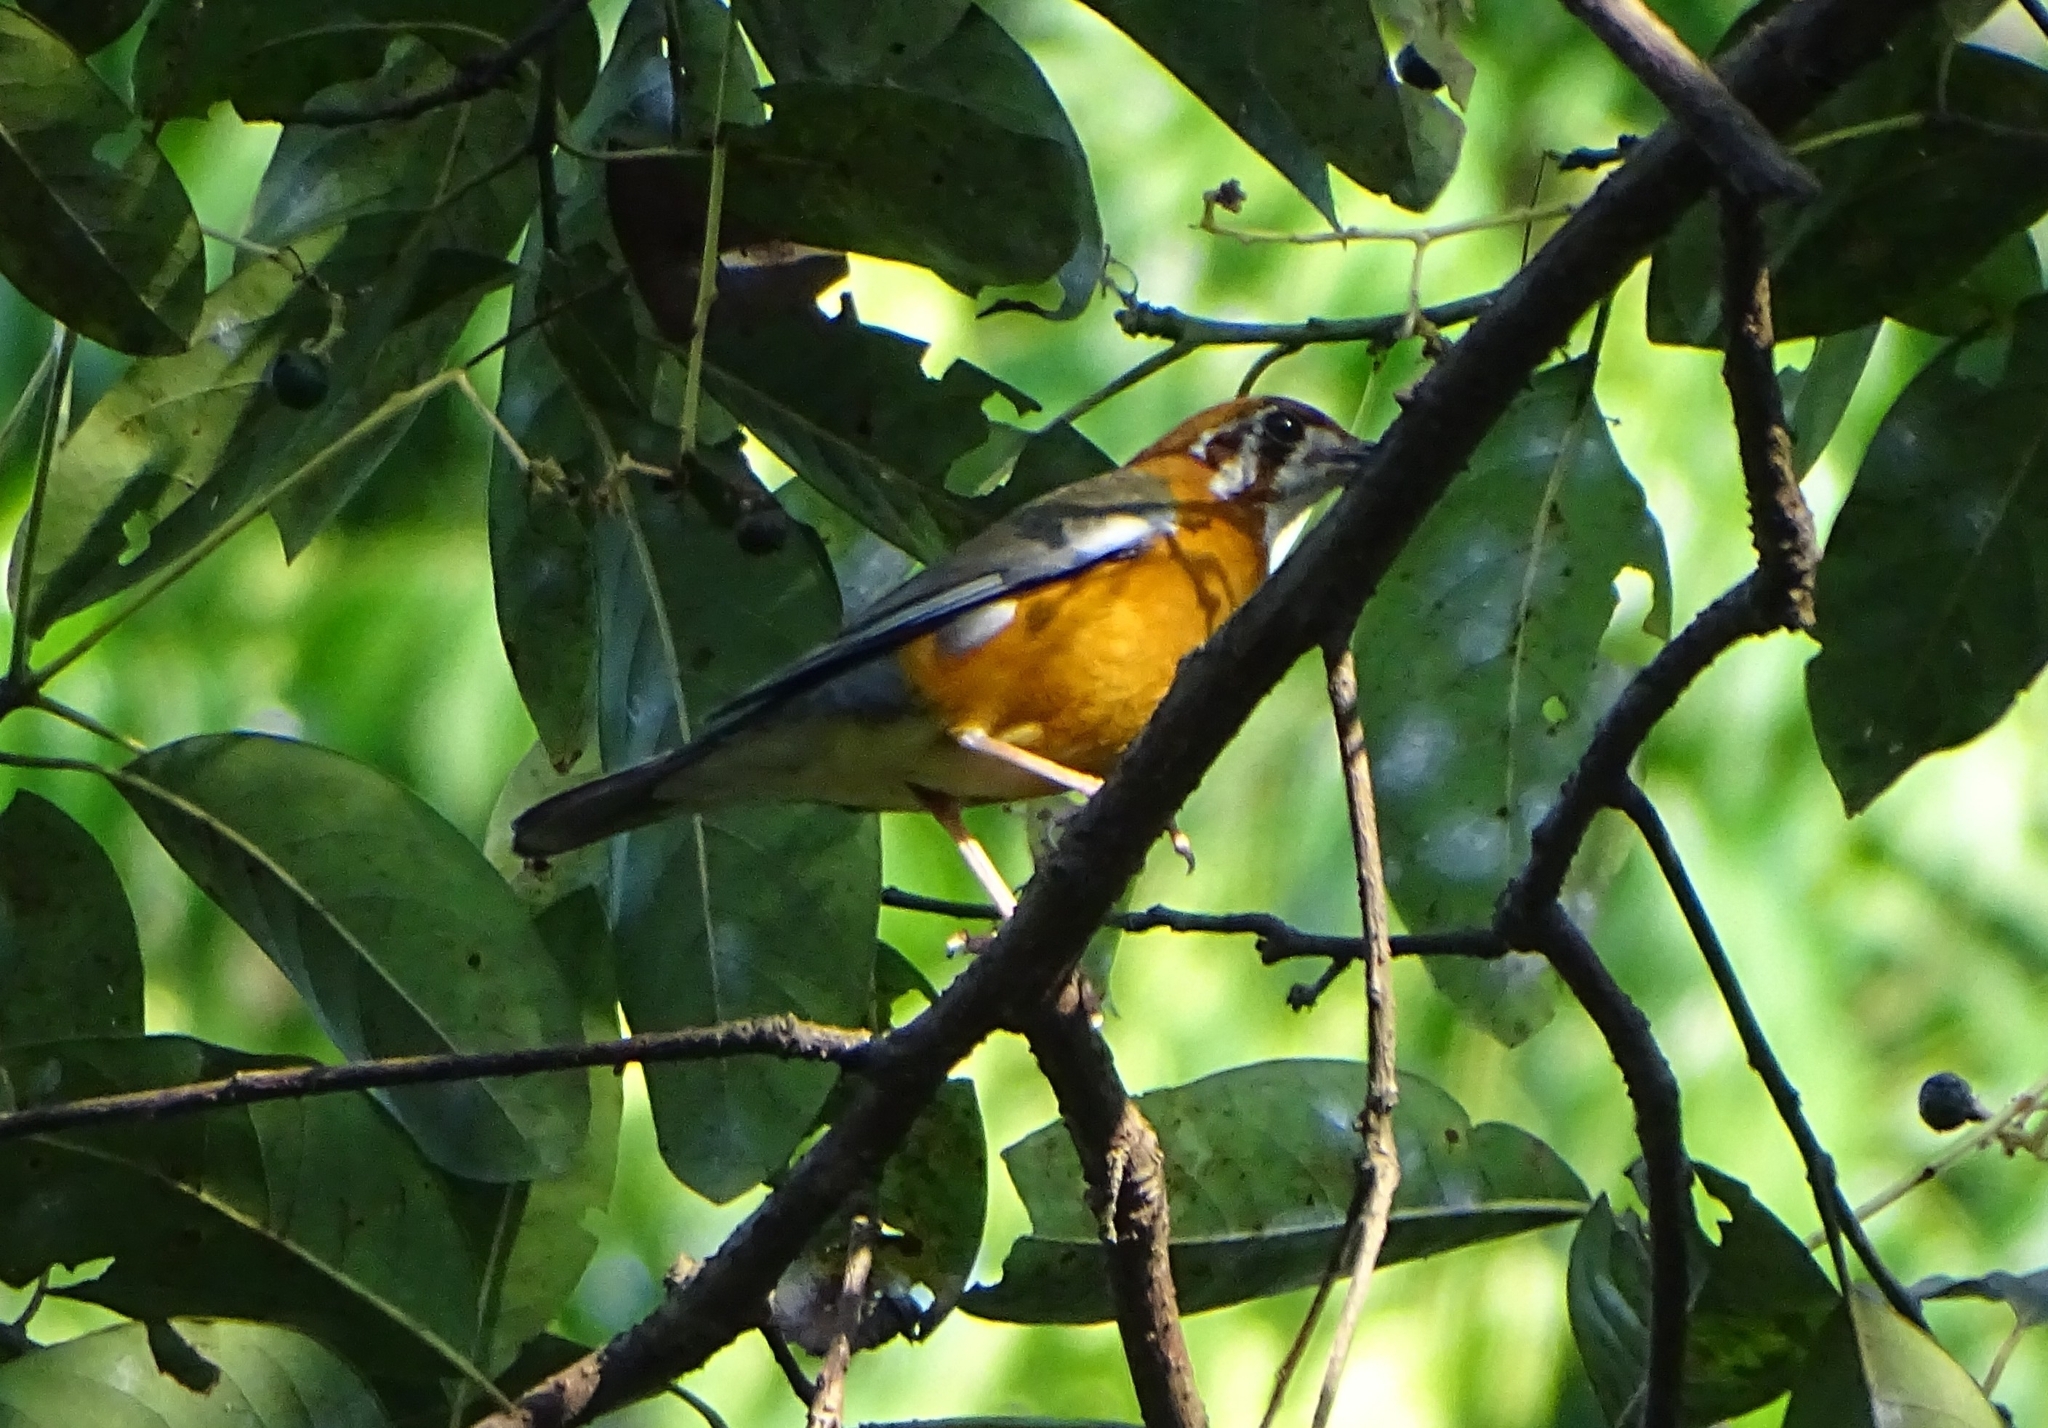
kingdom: Animalia
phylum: Chordata
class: Aves
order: Passeriformes
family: Turdidae
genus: Geokichla
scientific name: Geokichla citrina
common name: Orange-headed thrush
